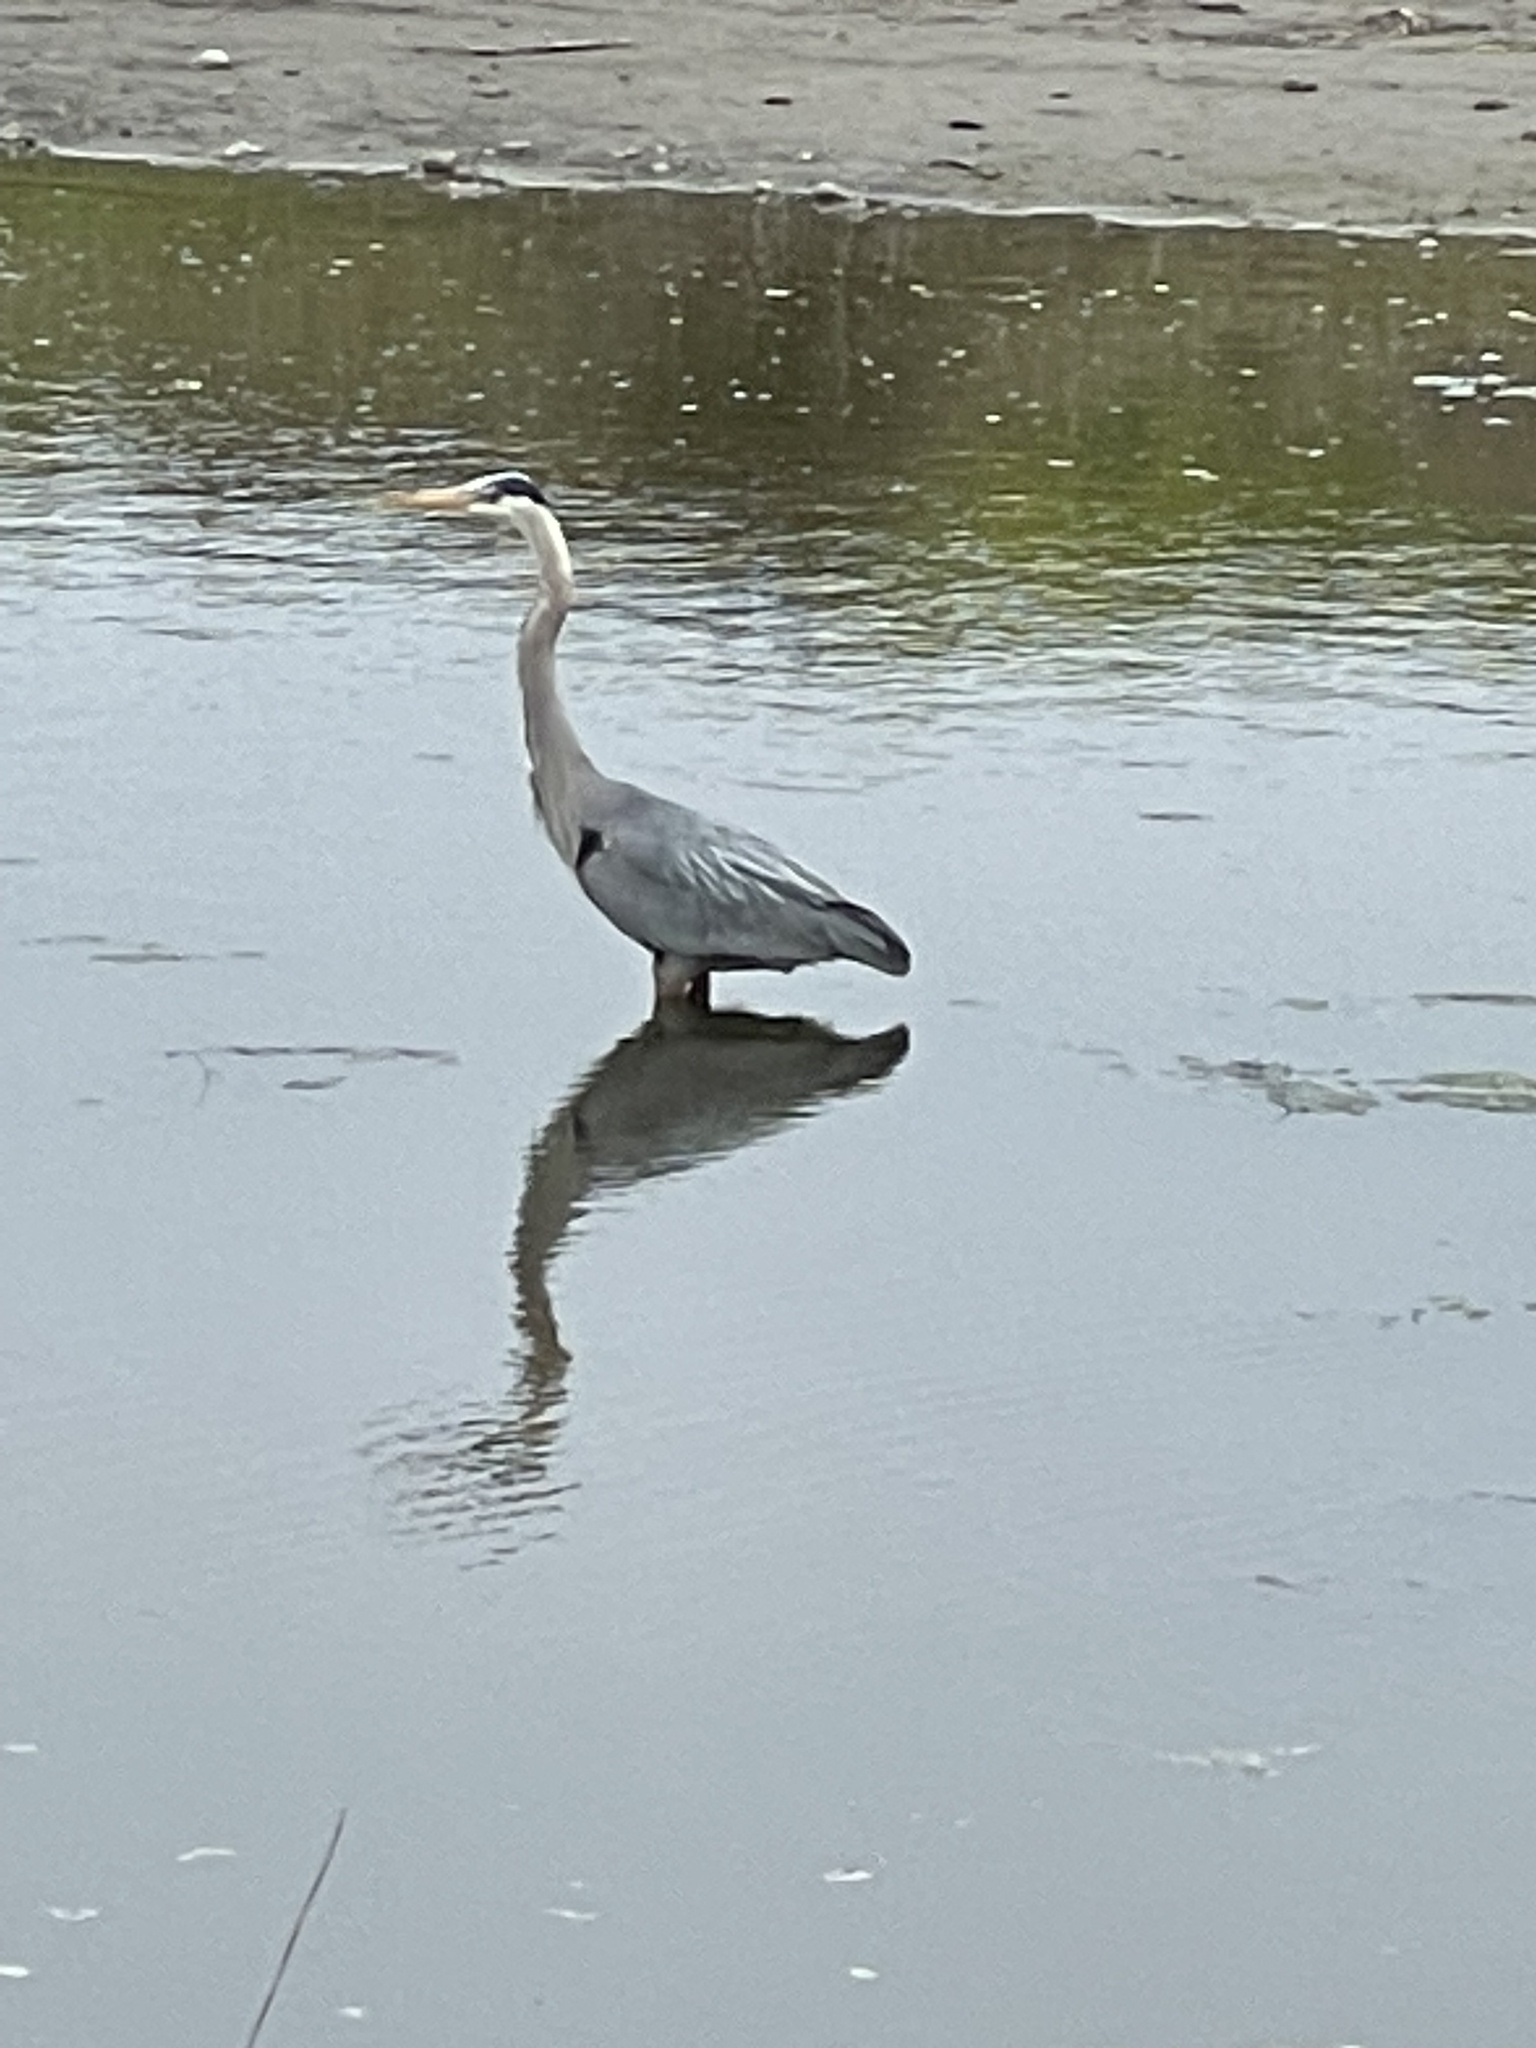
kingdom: Animalia
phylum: Chordata
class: Aves
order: Pelecaniformes
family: Ardeidae
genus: Ardea
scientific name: Ardea herodias
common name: Great blue heron
